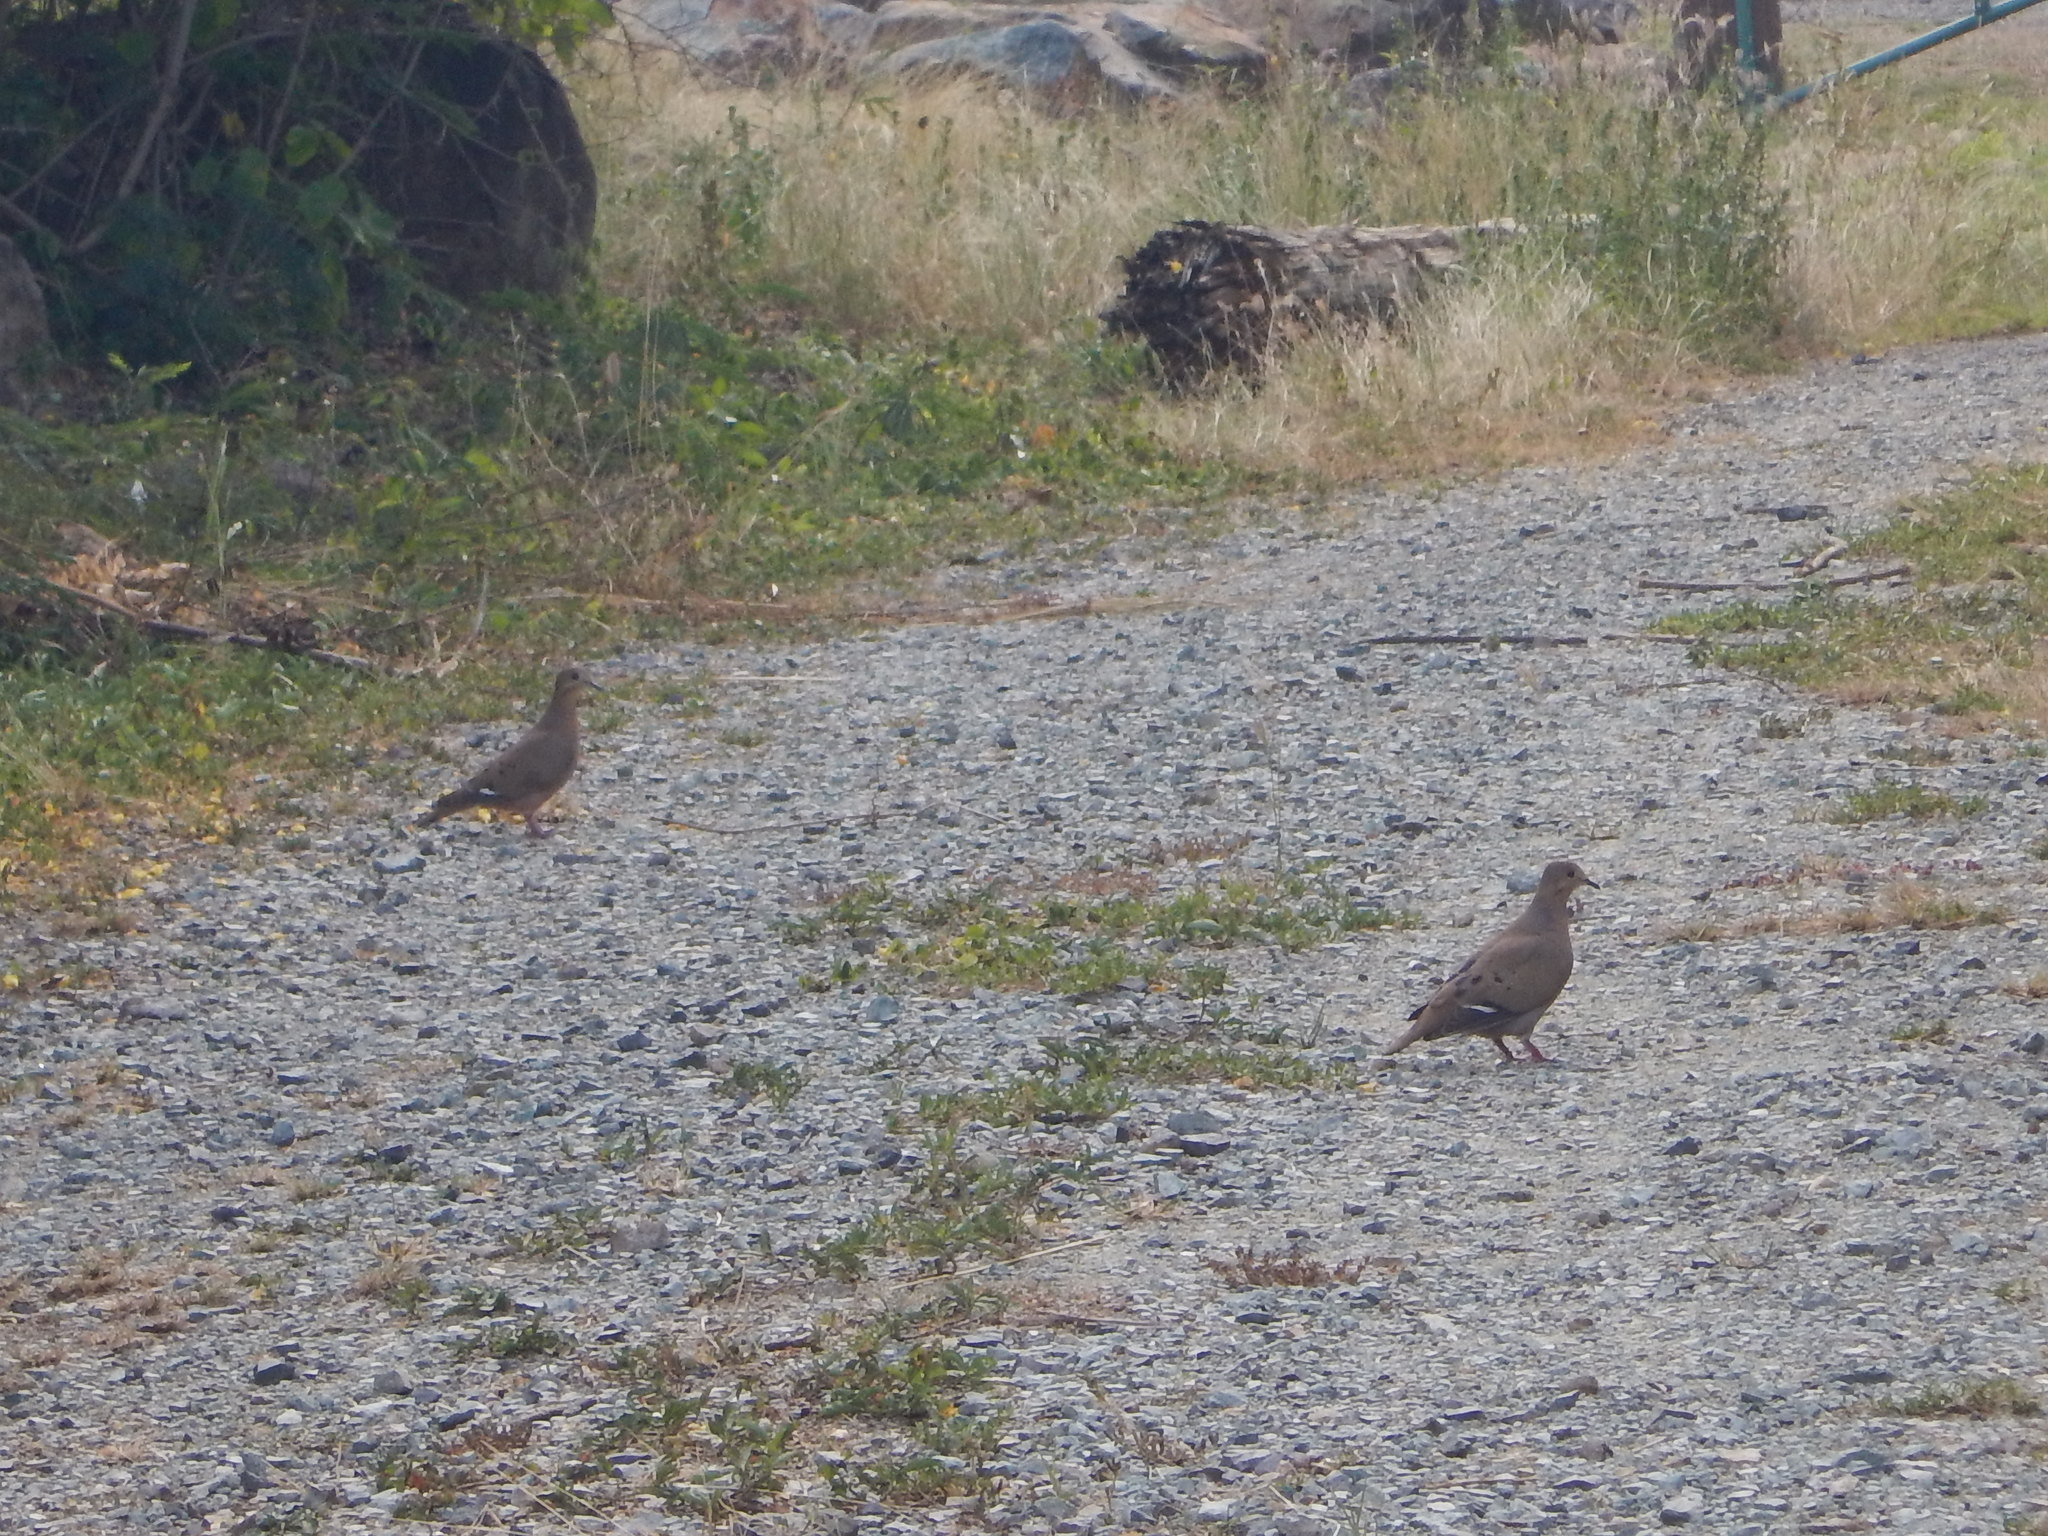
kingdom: Animalia
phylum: Chordata
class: Aves
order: Columbiformes
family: Columbidae
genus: Zenaida
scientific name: Zenaida aurita
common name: Zenaida dove
